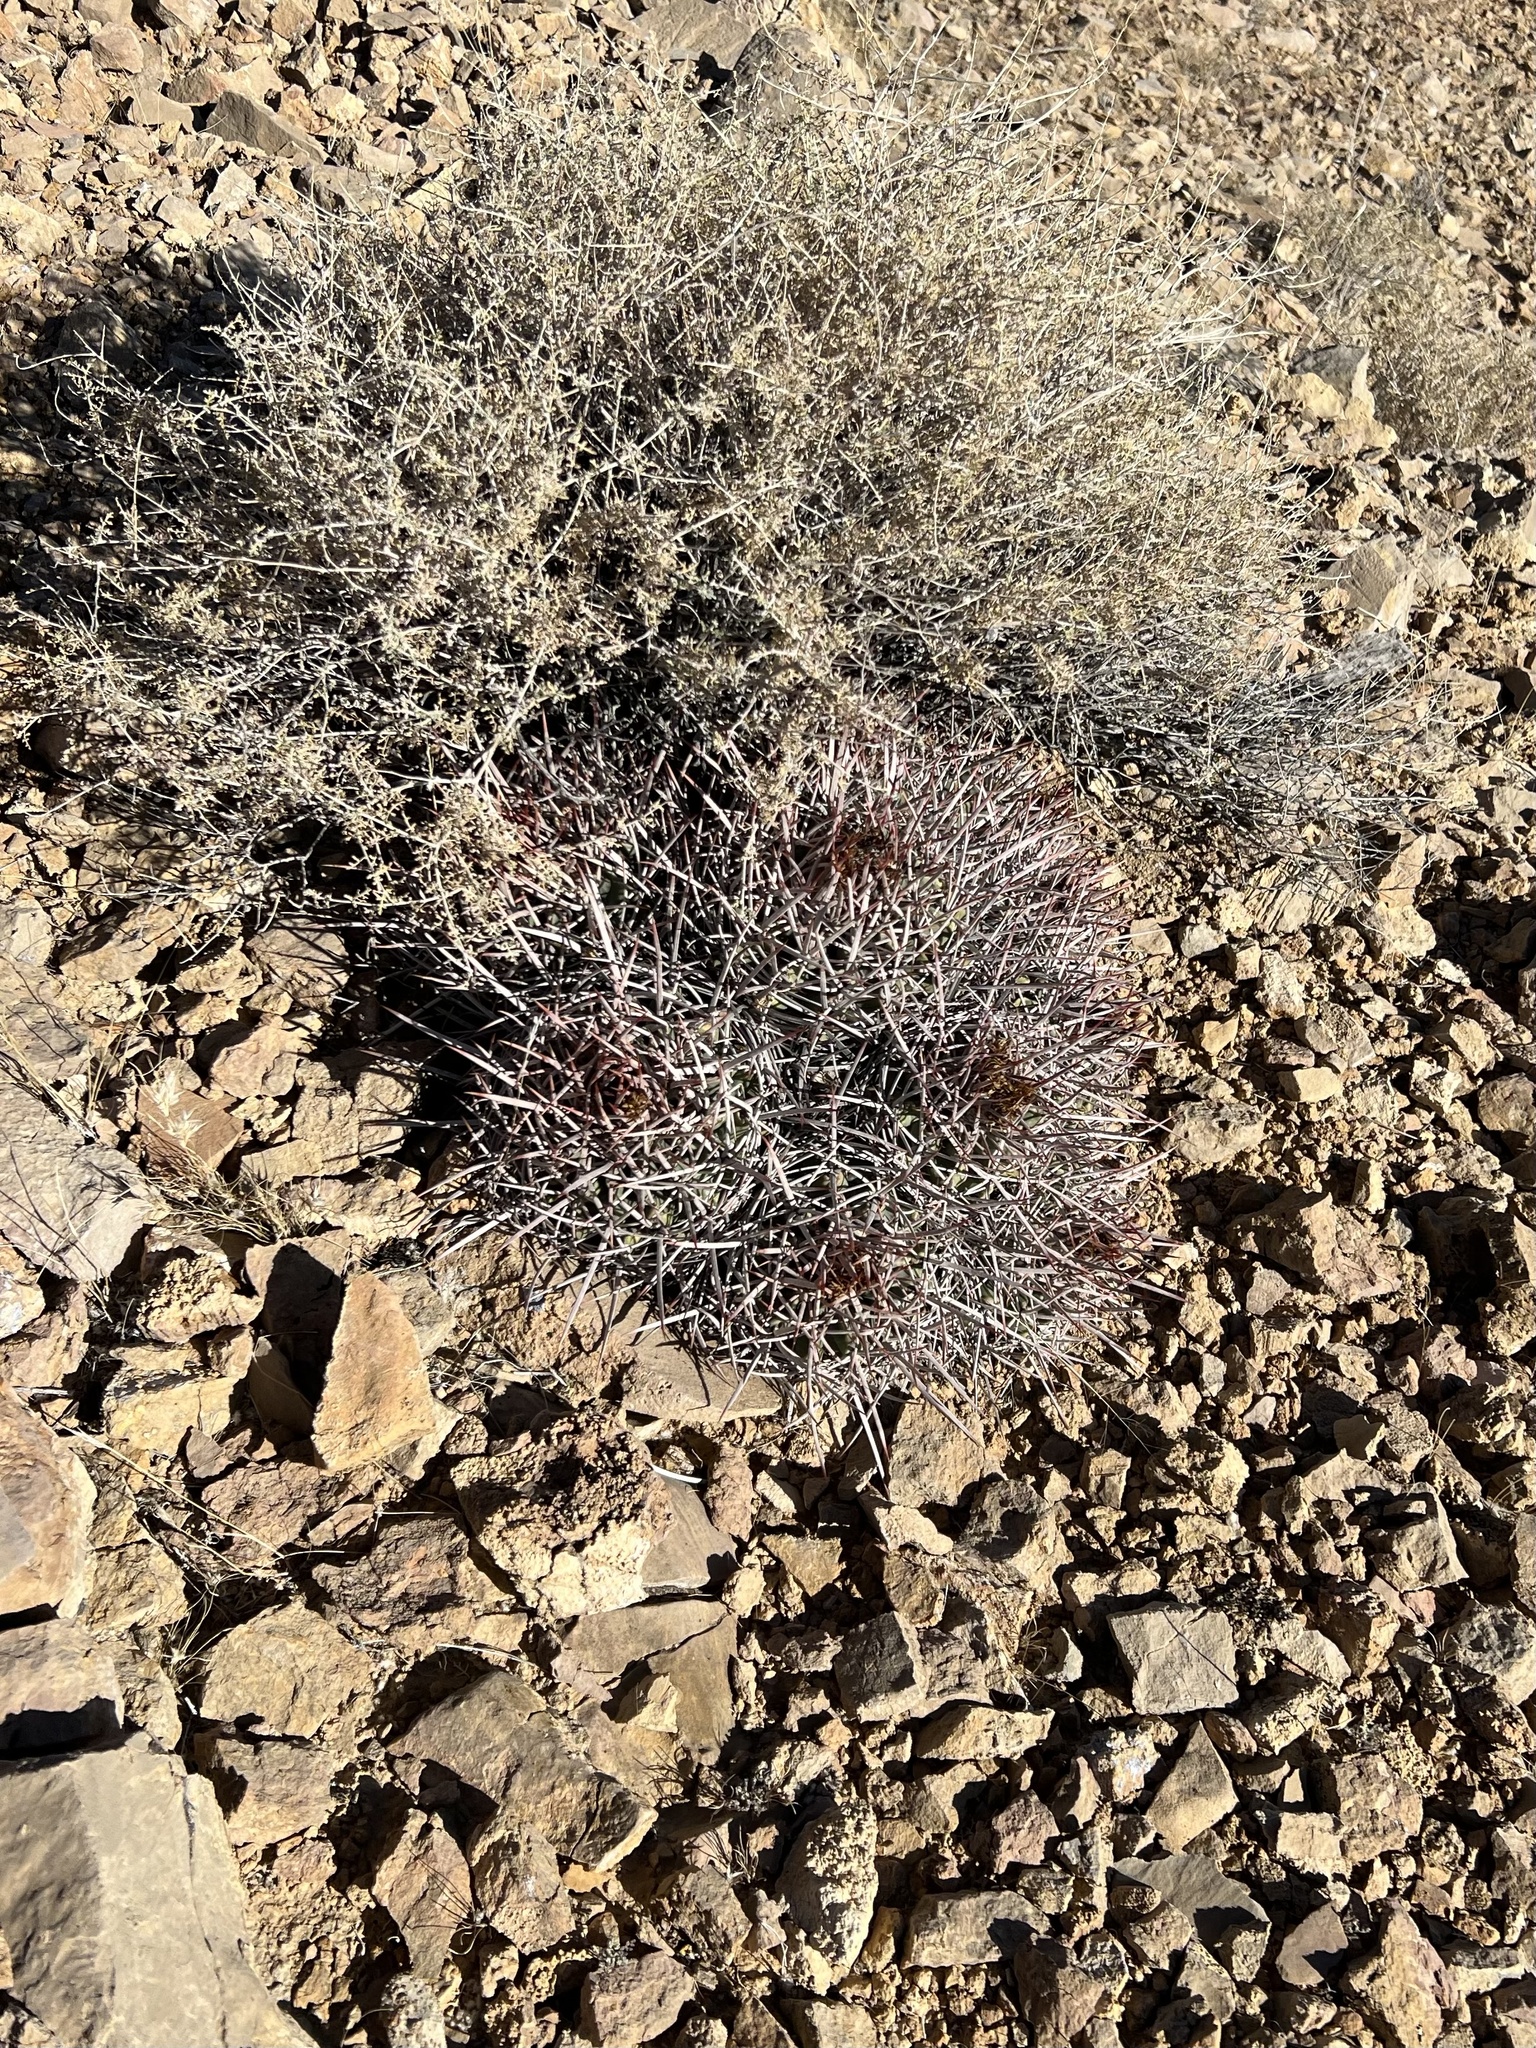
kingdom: Plantae
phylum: Tracheophyta
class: Magnoliopsida
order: Caryophyllales
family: Cactaceae
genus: Echinocactus
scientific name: Echinocactus polycephalus
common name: Cottontop cactus
